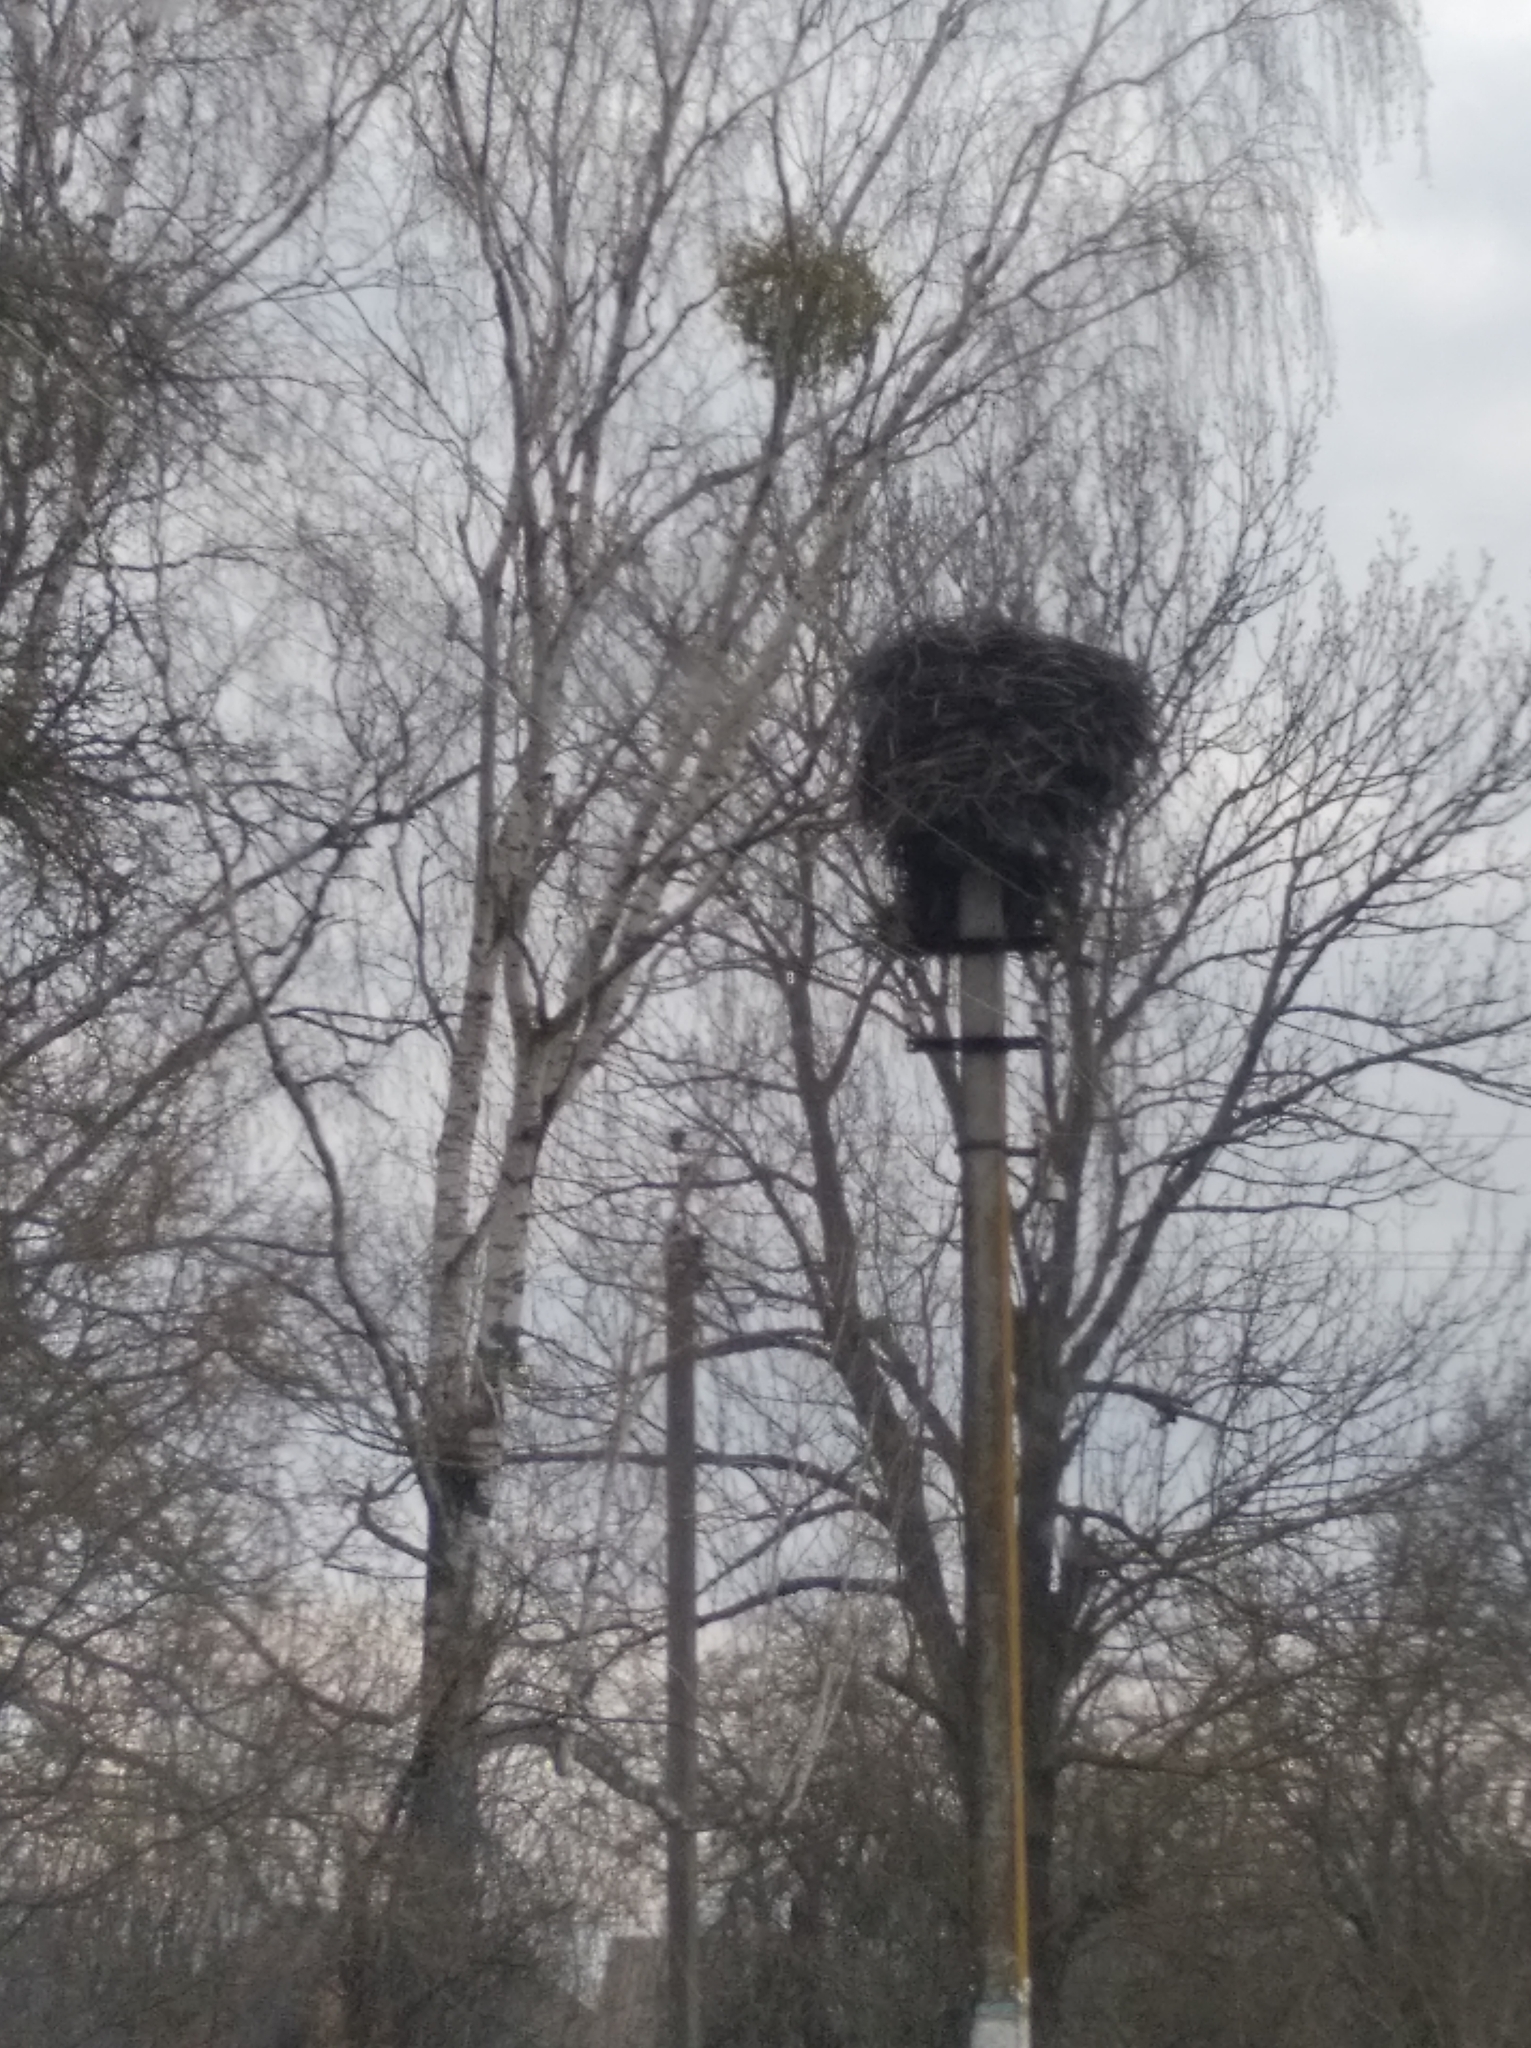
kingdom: Animalia
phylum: Chordata
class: Aves
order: Ciconiiformes
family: Ciconiidae
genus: Ciconia
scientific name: Ciconia ciconia
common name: White stork
